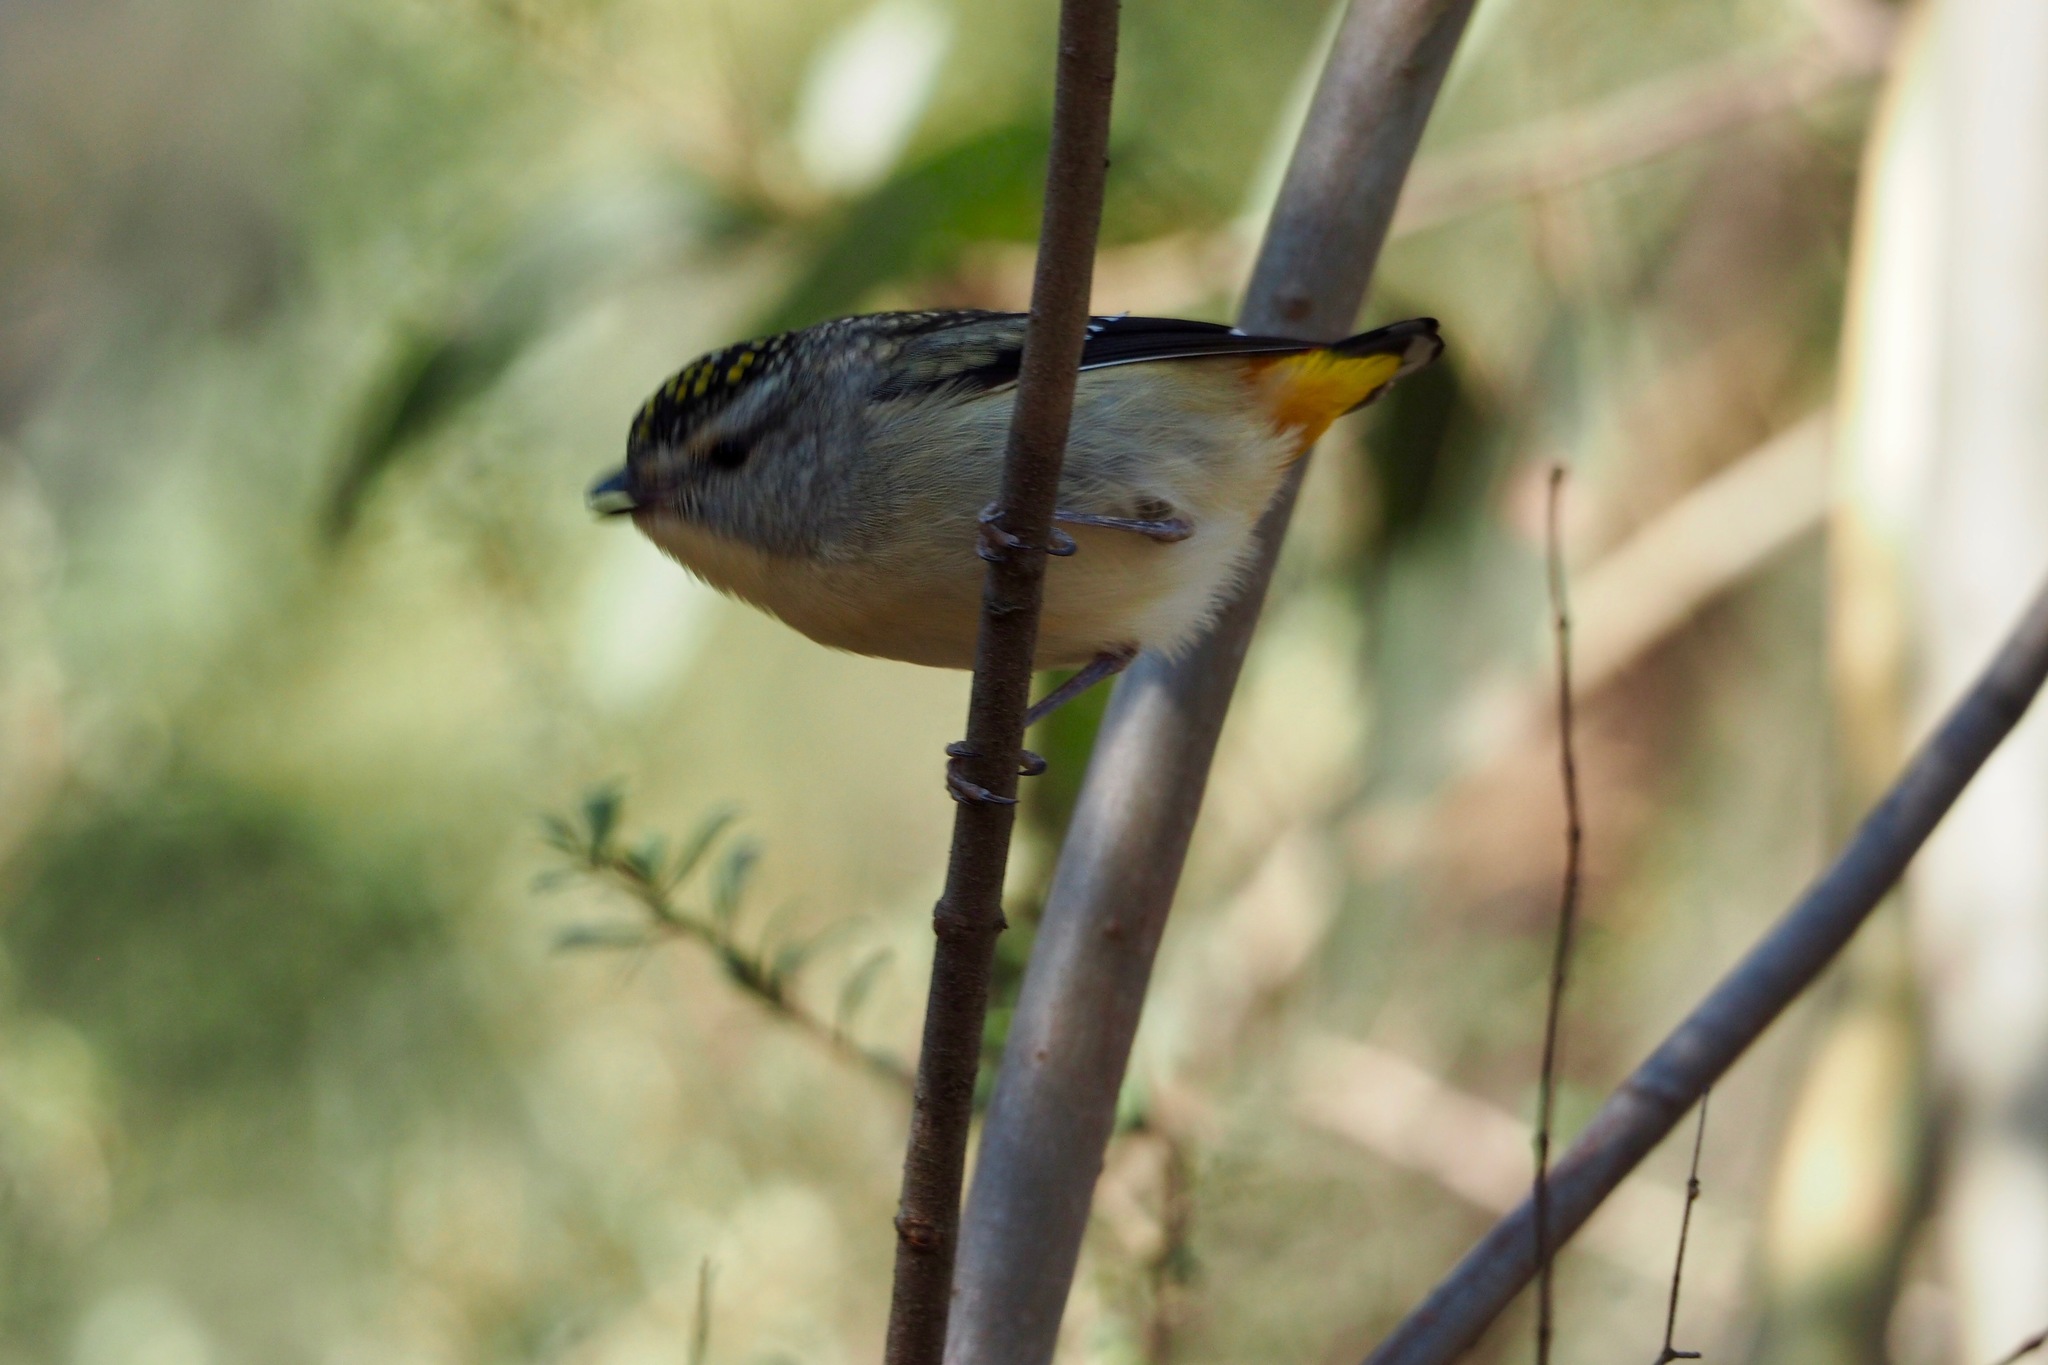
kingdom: Animalia
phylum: Chordata
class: Aves
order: Passeriformes
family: Pardalotidae
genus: Pardalotus
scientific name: Pardalotus punctatus
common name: Spotted pardalote
